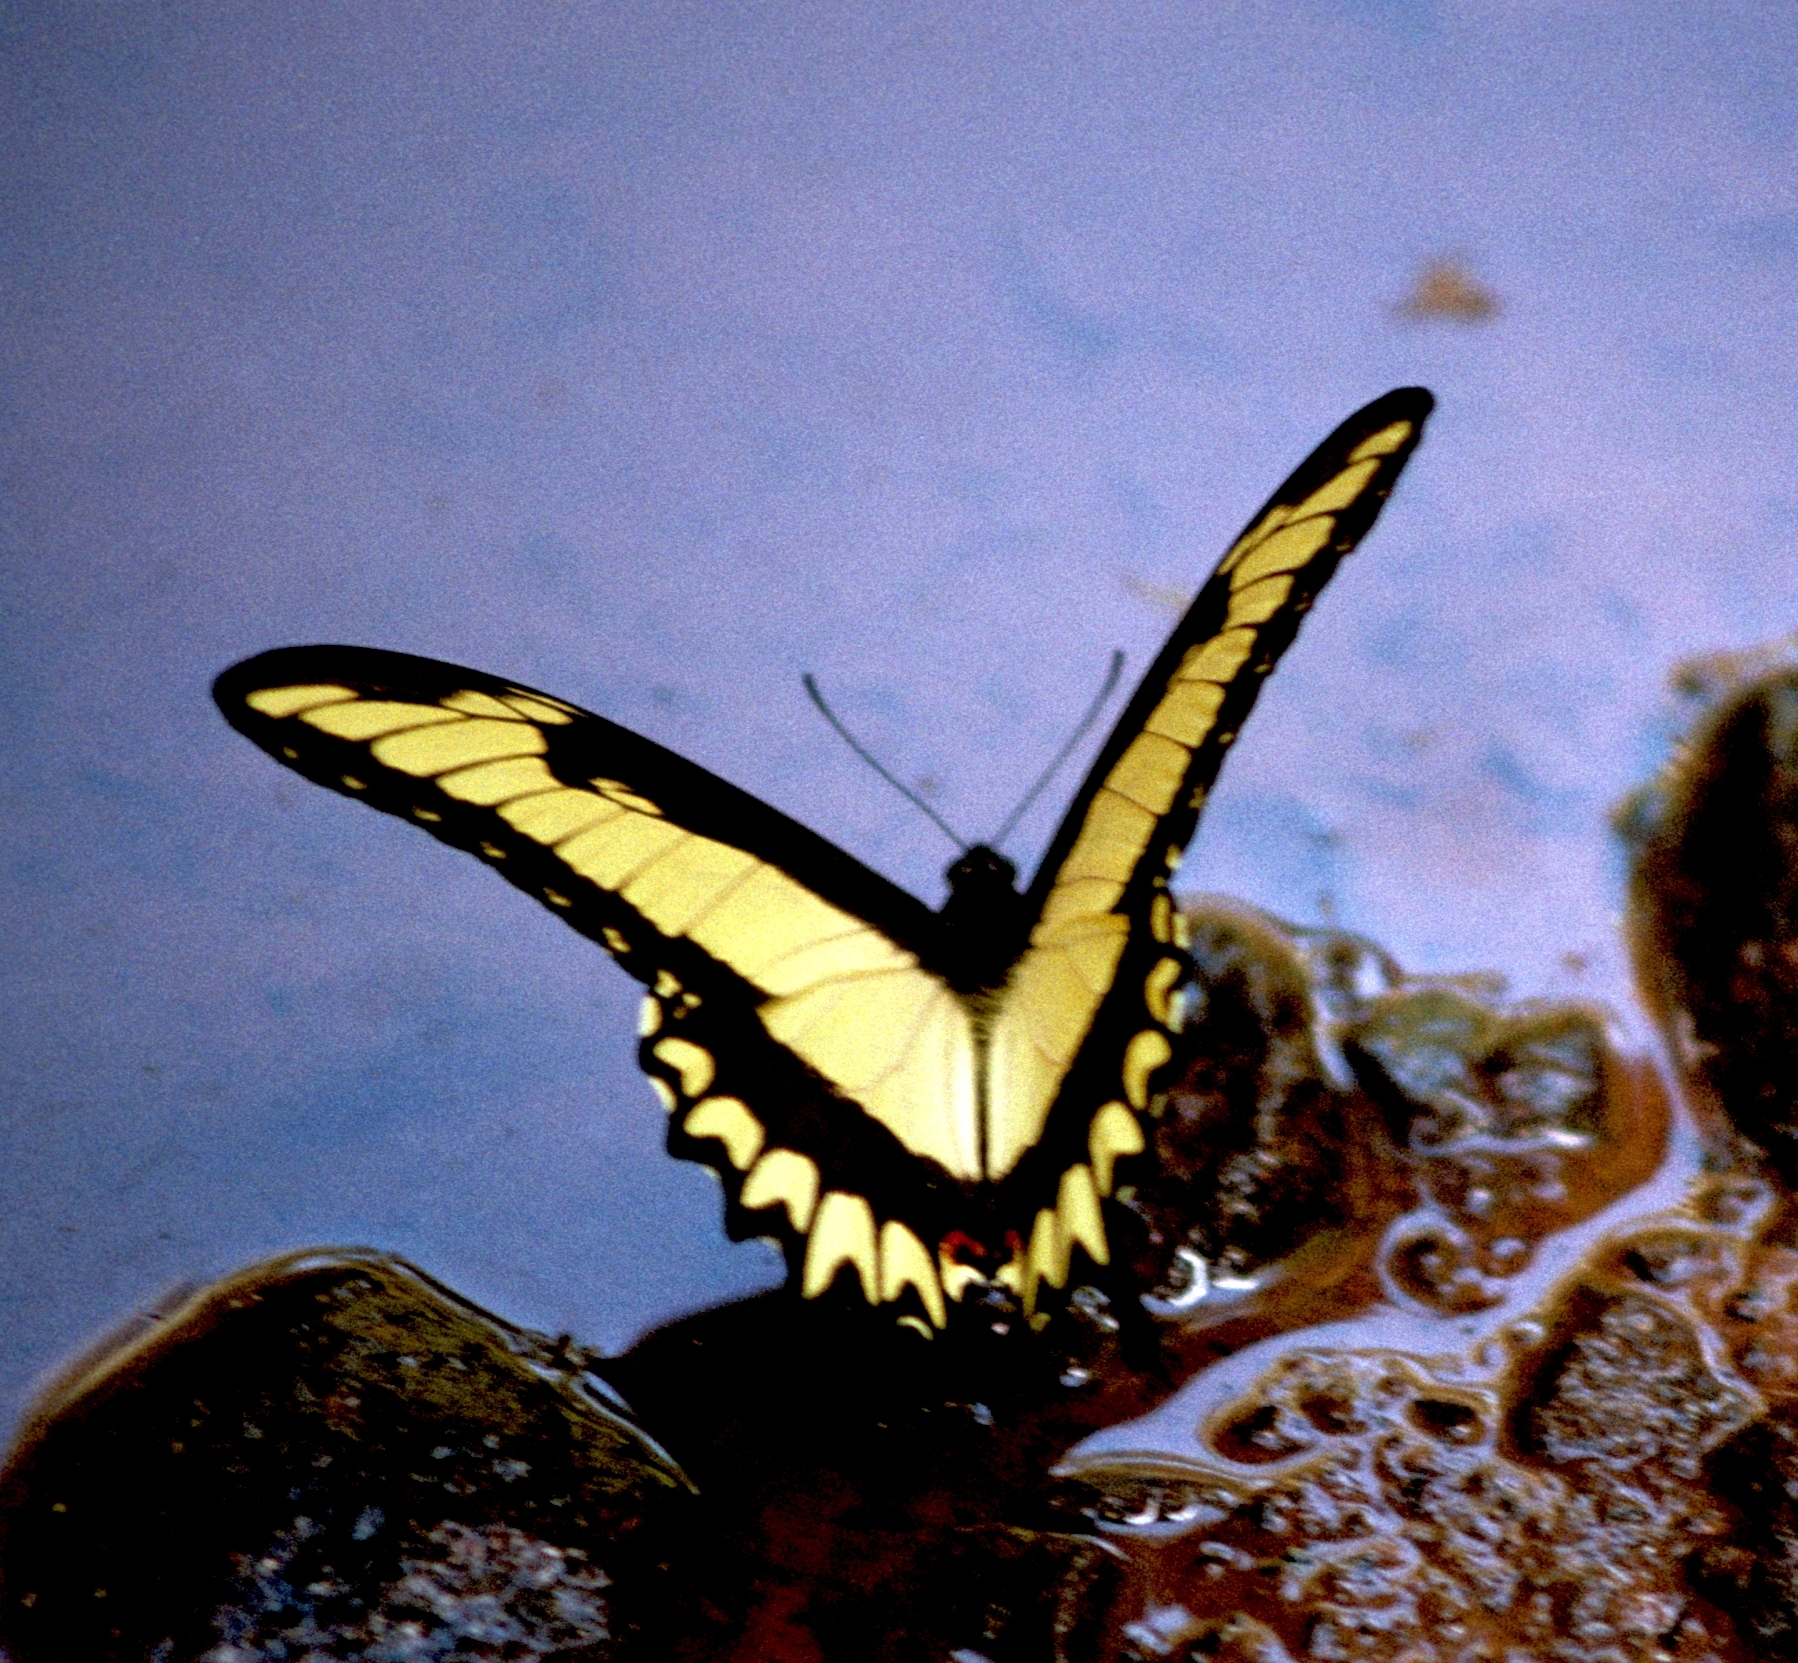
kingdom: Animalia
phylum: Arthropoda
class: Insecta
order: Lepidoptera
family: Papilionidae
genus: Papilio
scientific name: Papilio astyalus
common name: Astyalus swallowtail
